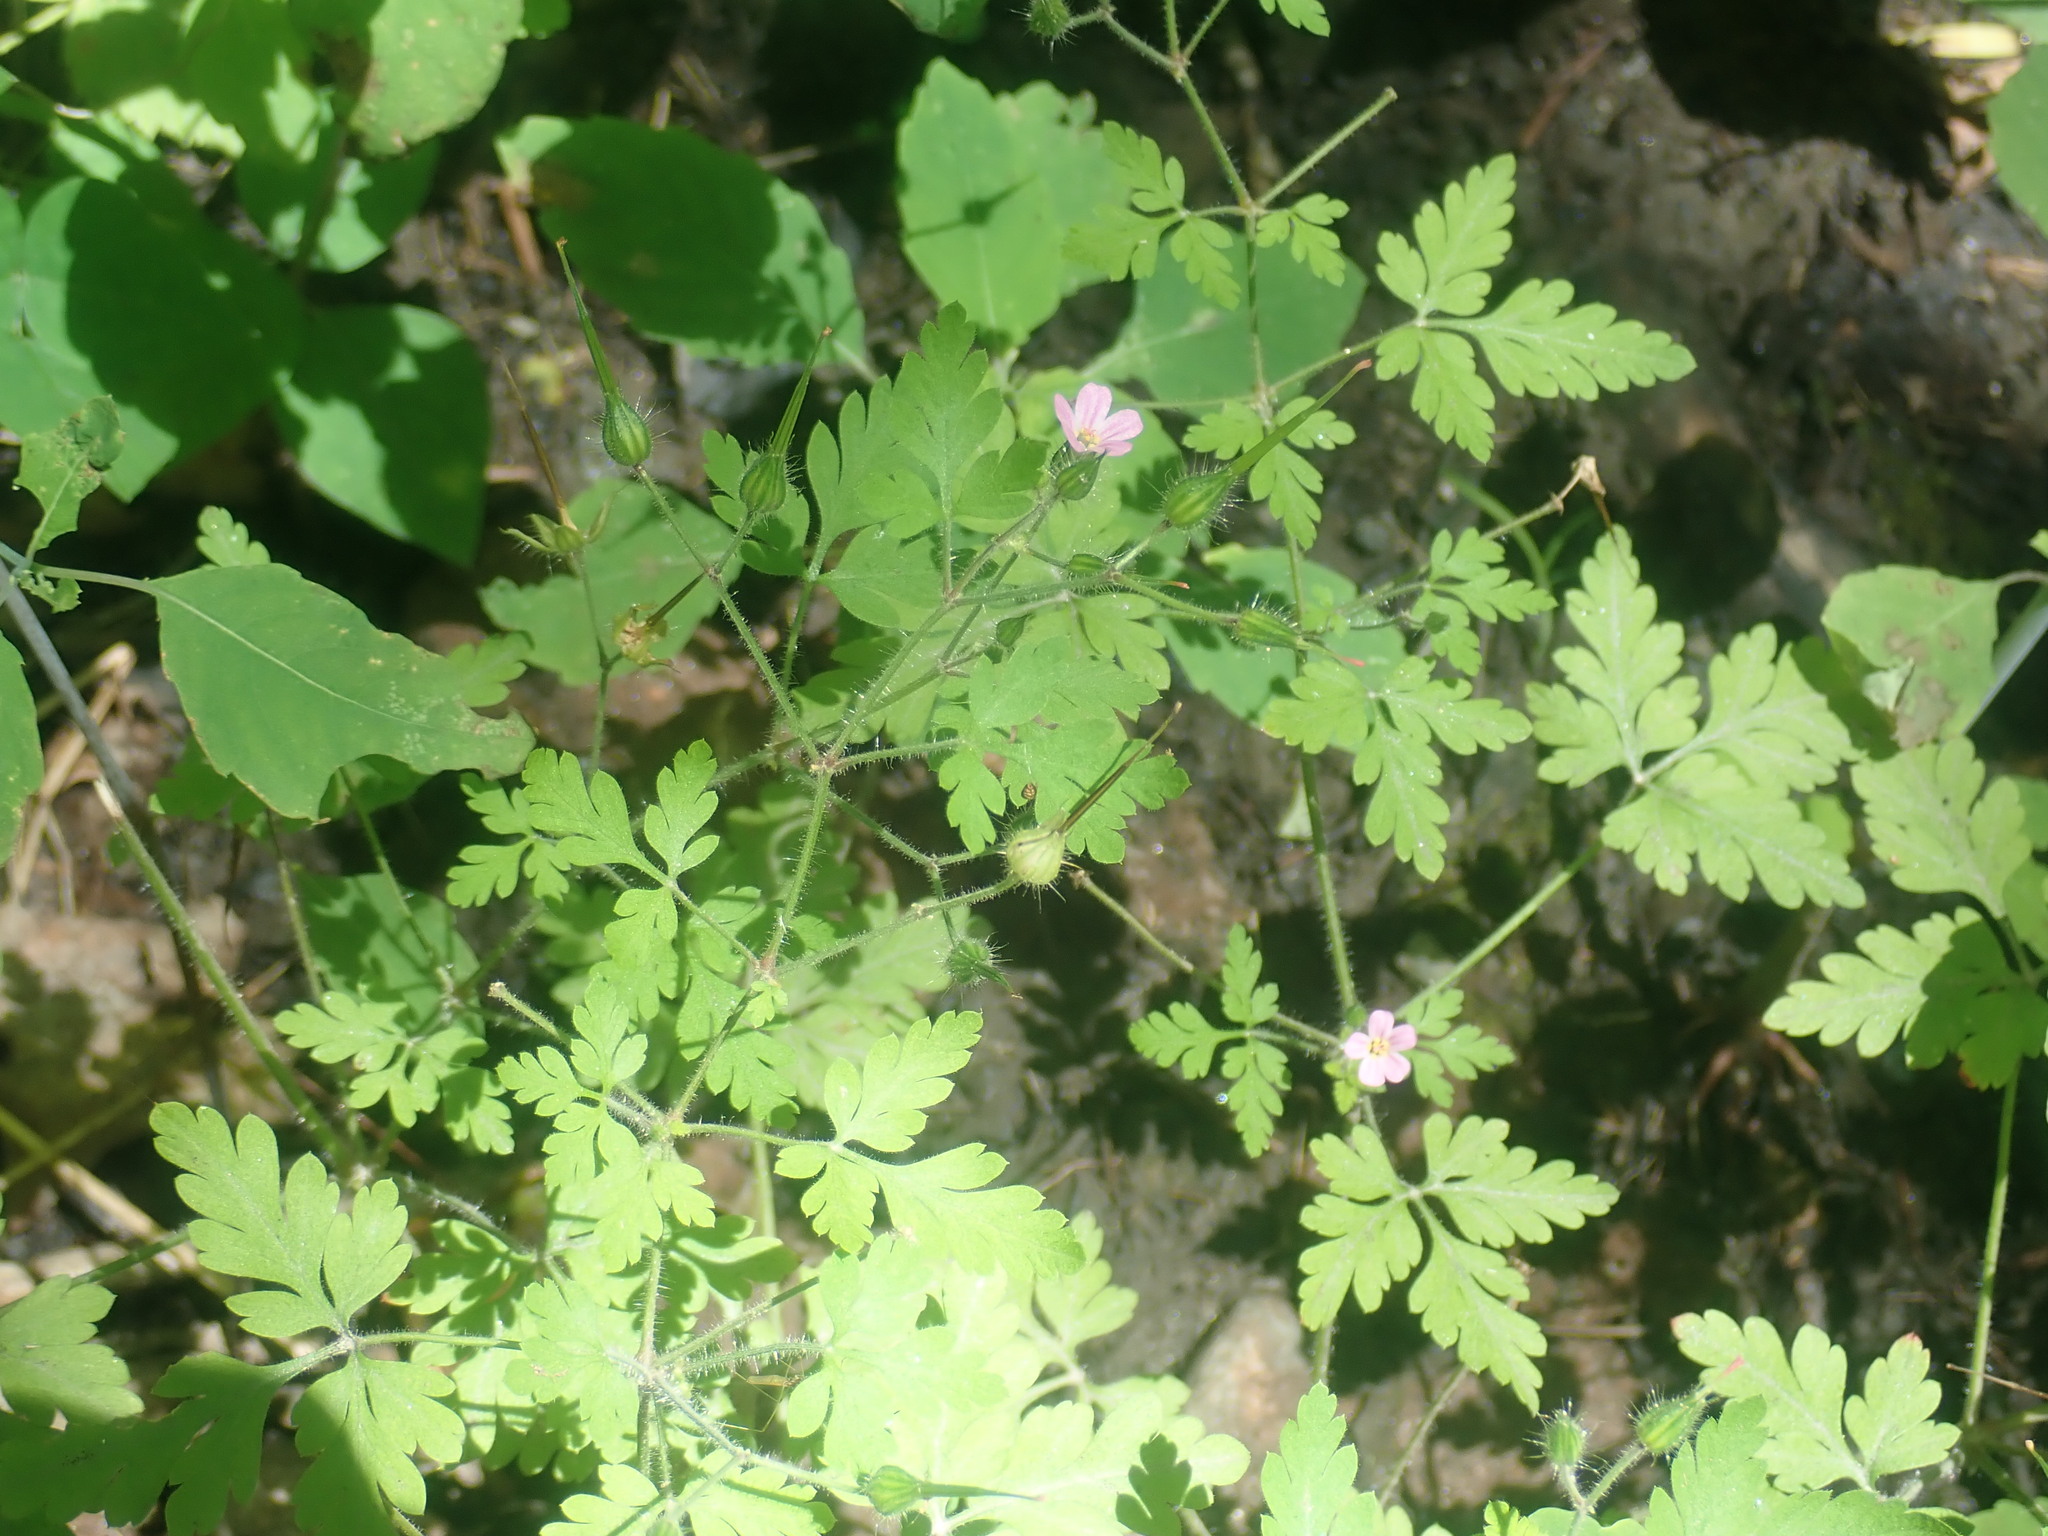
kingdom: Plantae
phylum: Tracheophyta
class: Magnoliopsida
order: Geraniales
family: Geraniaceae
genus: Geranium
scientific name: Geranium robertianum
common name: Herb-robert
